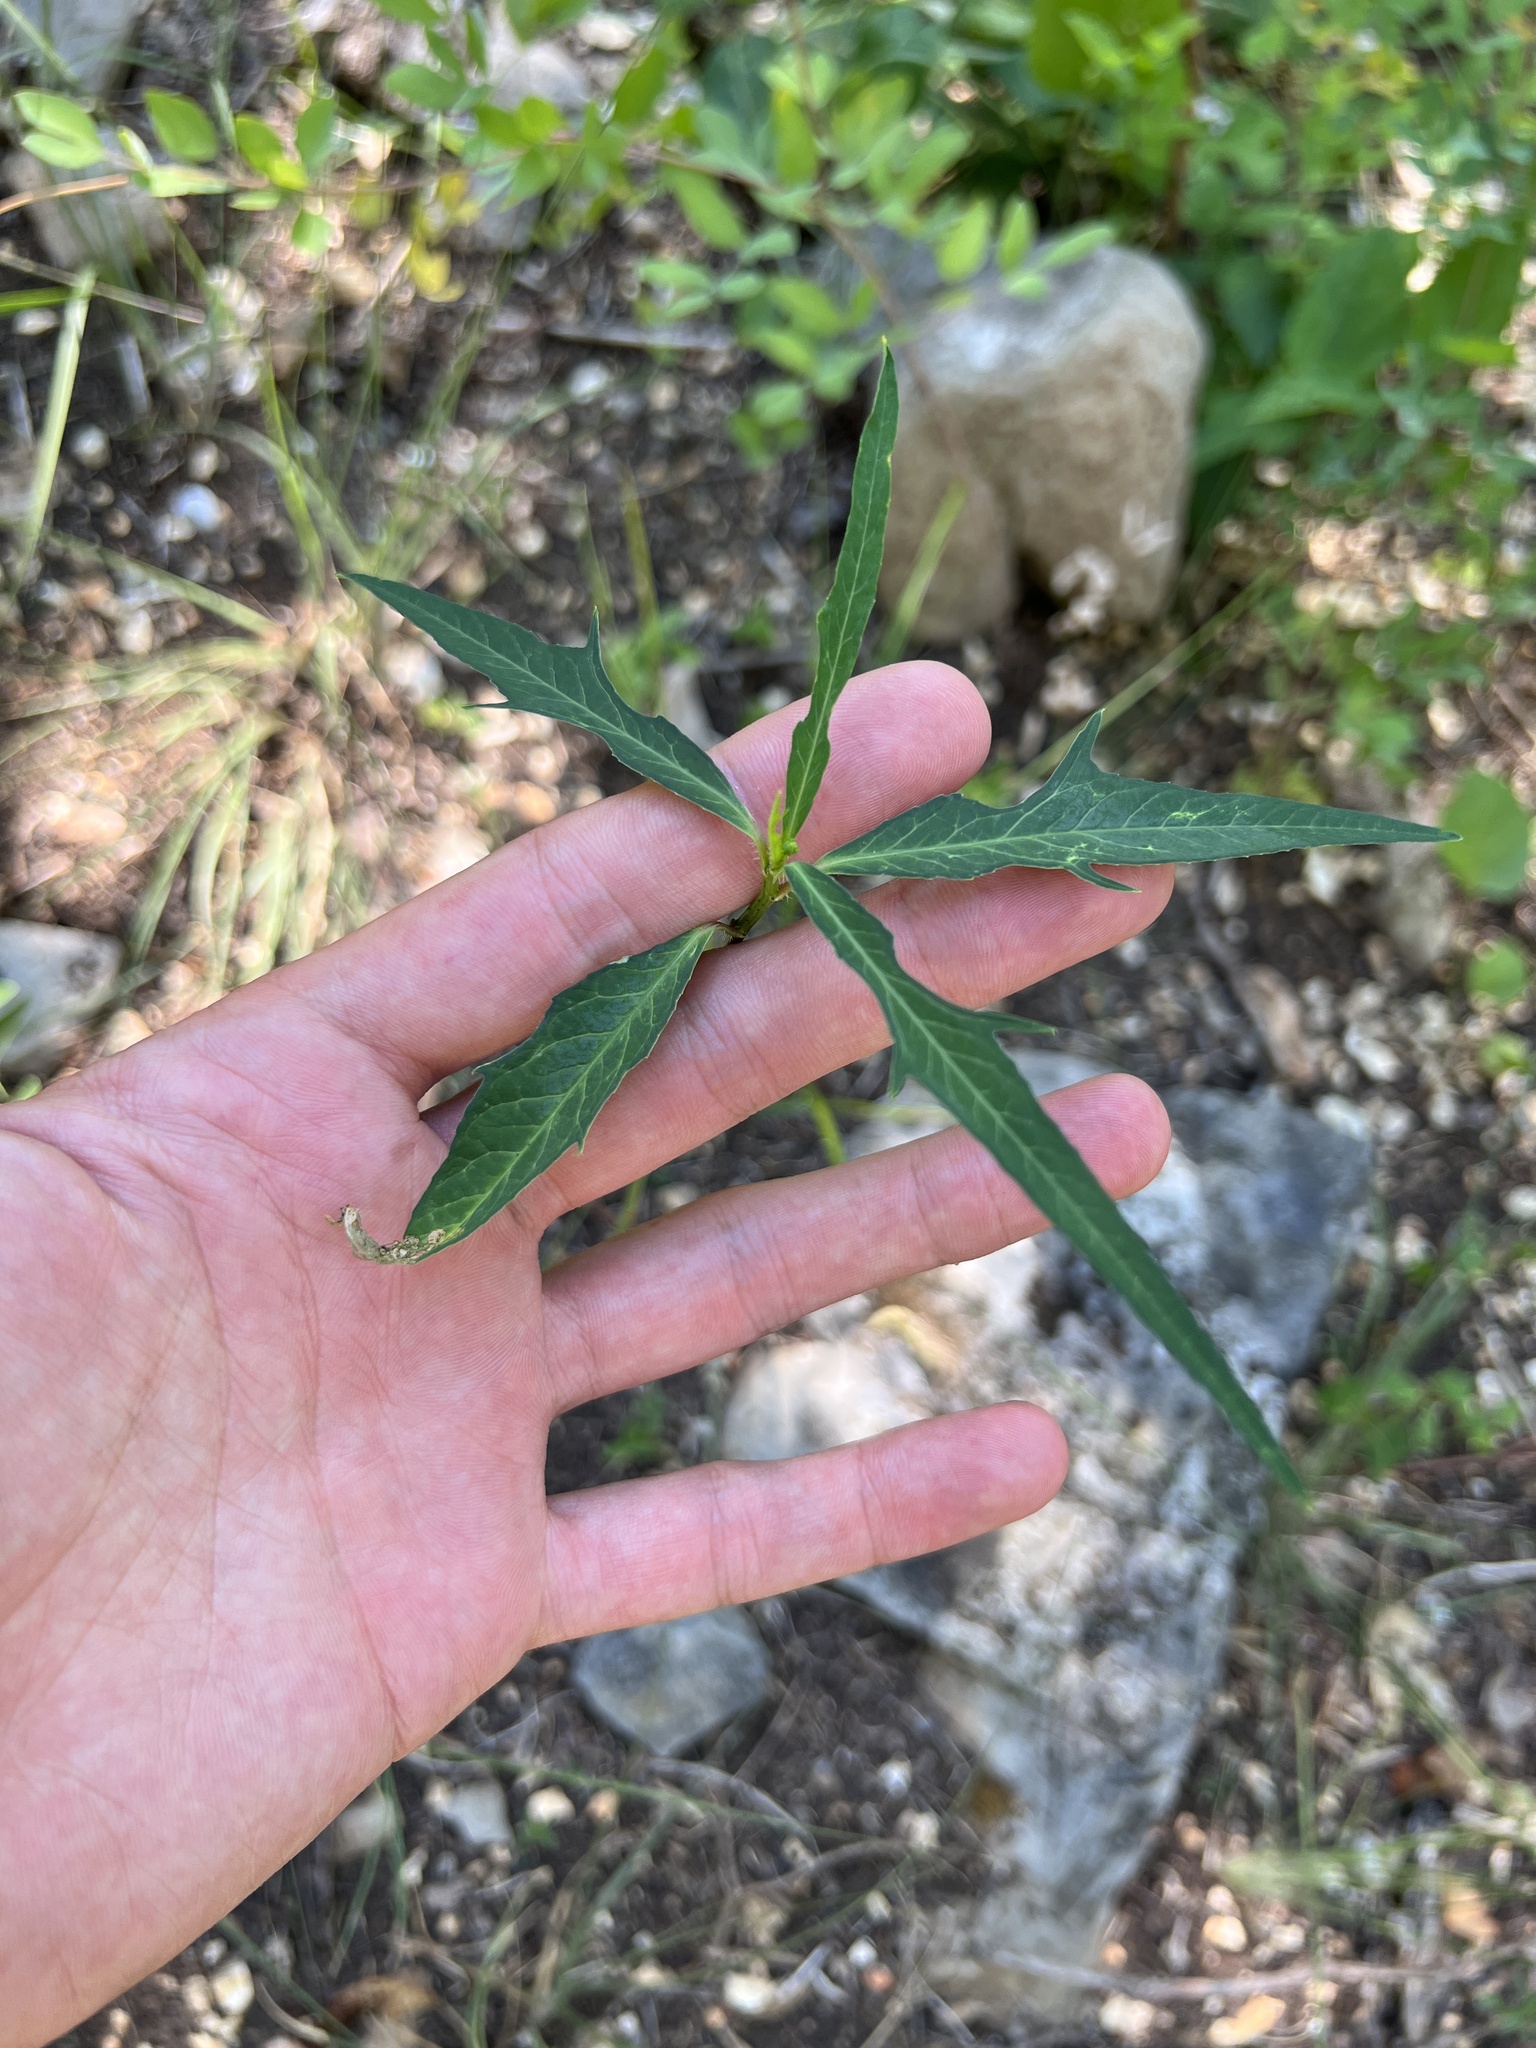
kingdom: Plantae
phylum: Tracheophyta
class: Magnoliopsida
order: Malpighiales
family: Euphorbiaceae
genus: Euphorbia
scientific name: Euphorbia heterophylla
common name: Mexican fireplant
